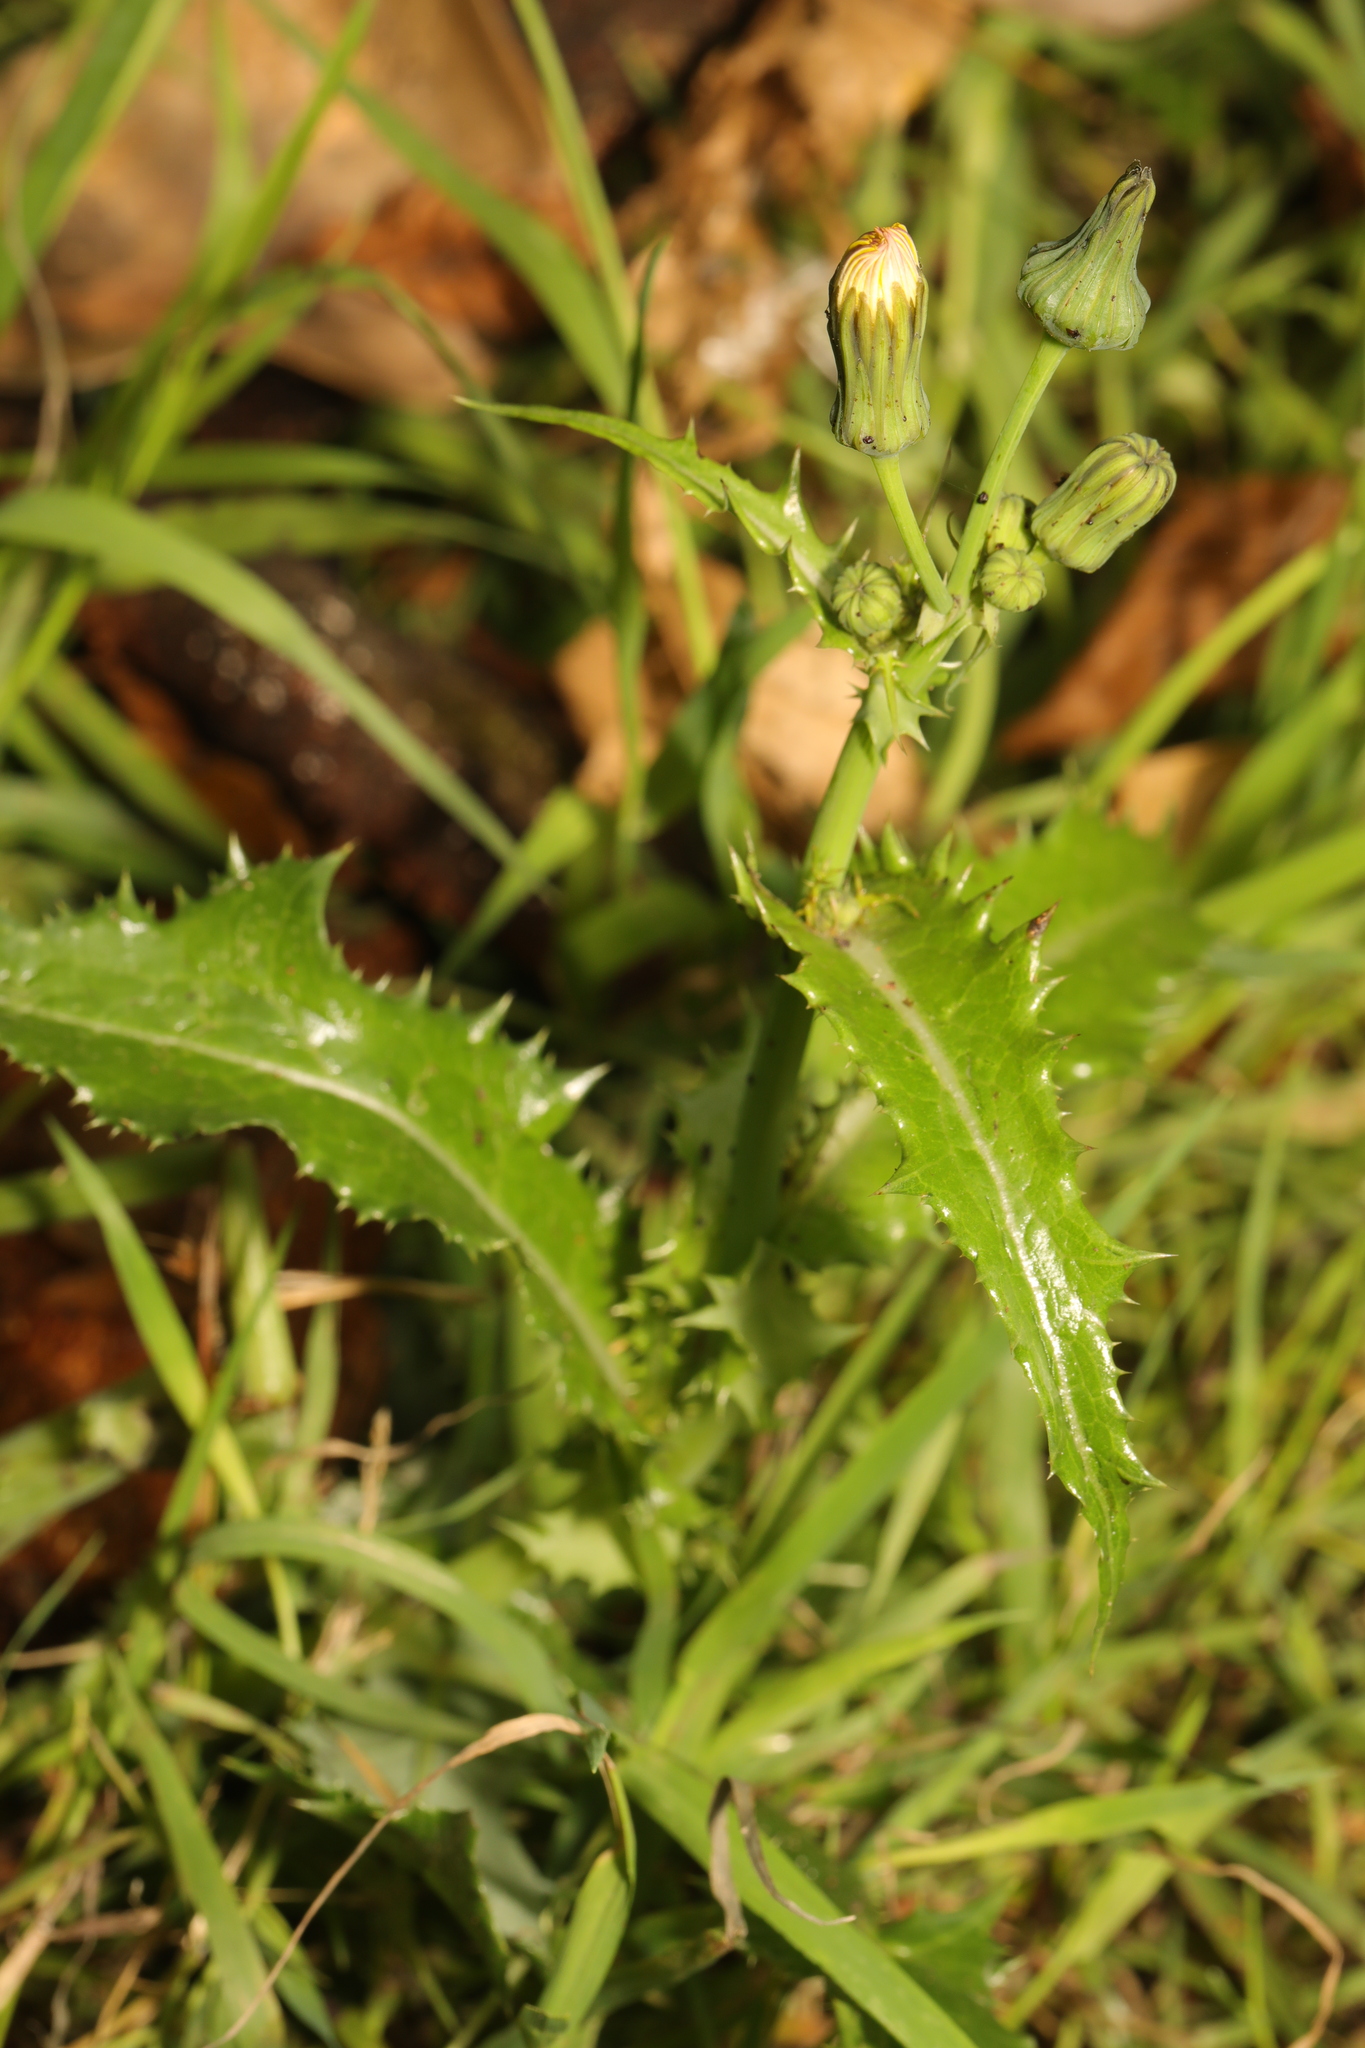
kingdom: Plantae
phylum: Tracheophyta
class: Magnoliopsida
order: Asterales
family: Asteraceae
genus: Sonchus
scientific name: Sonchus asper
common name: Prickly sow-thistle
